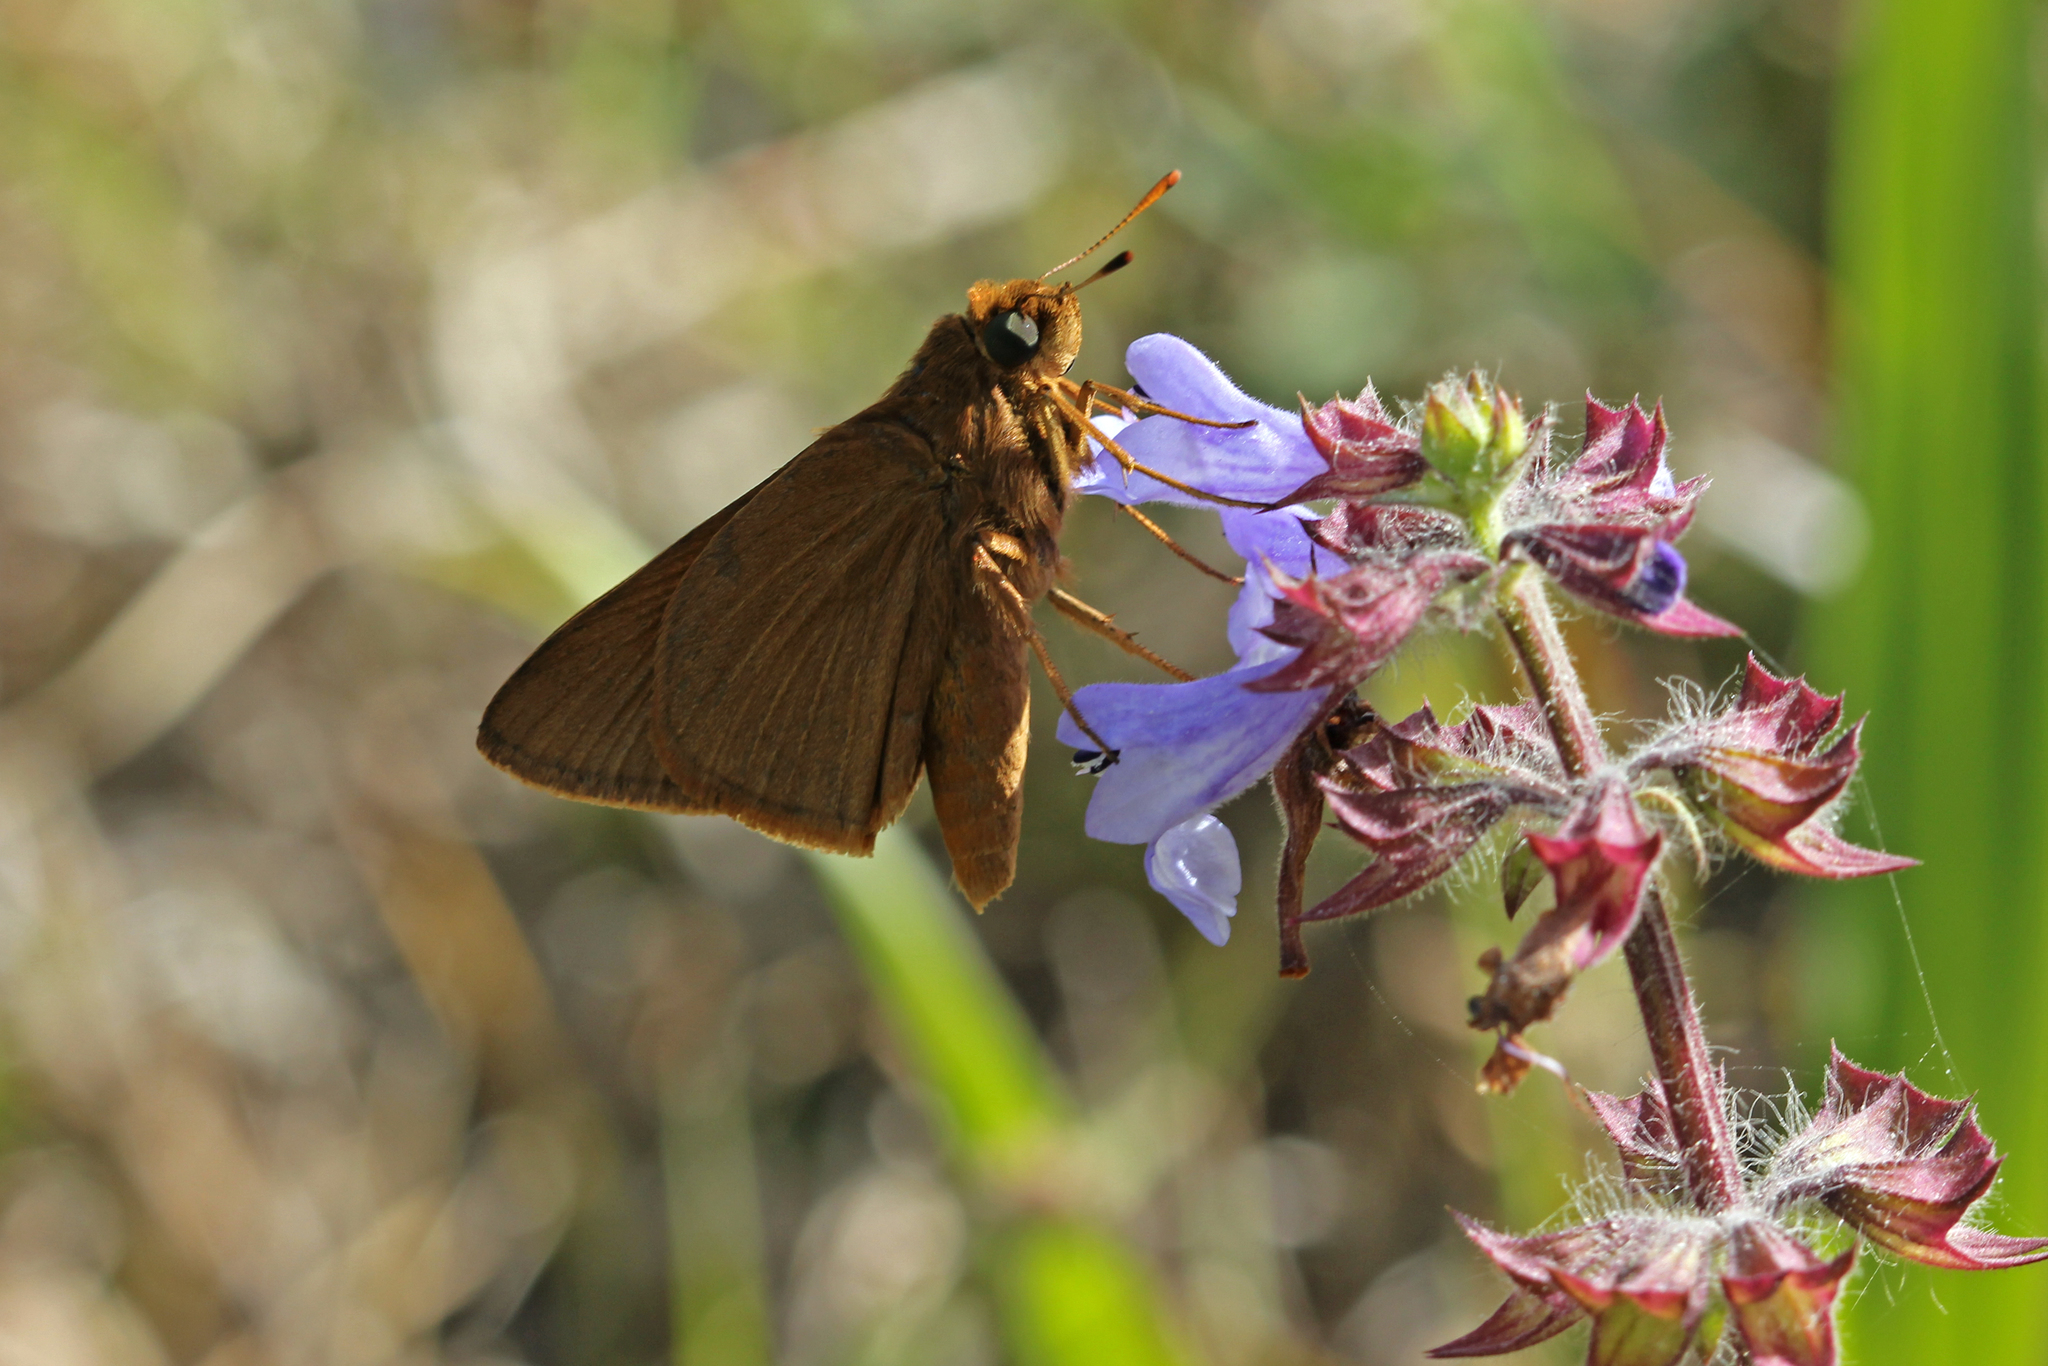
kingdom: Animalia
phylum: Arthropoda
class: Insecta
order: Lepidoptera
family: Hesperiidae
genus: Euphyes
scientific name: Euphyes pilatka
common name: Palatka skipper
